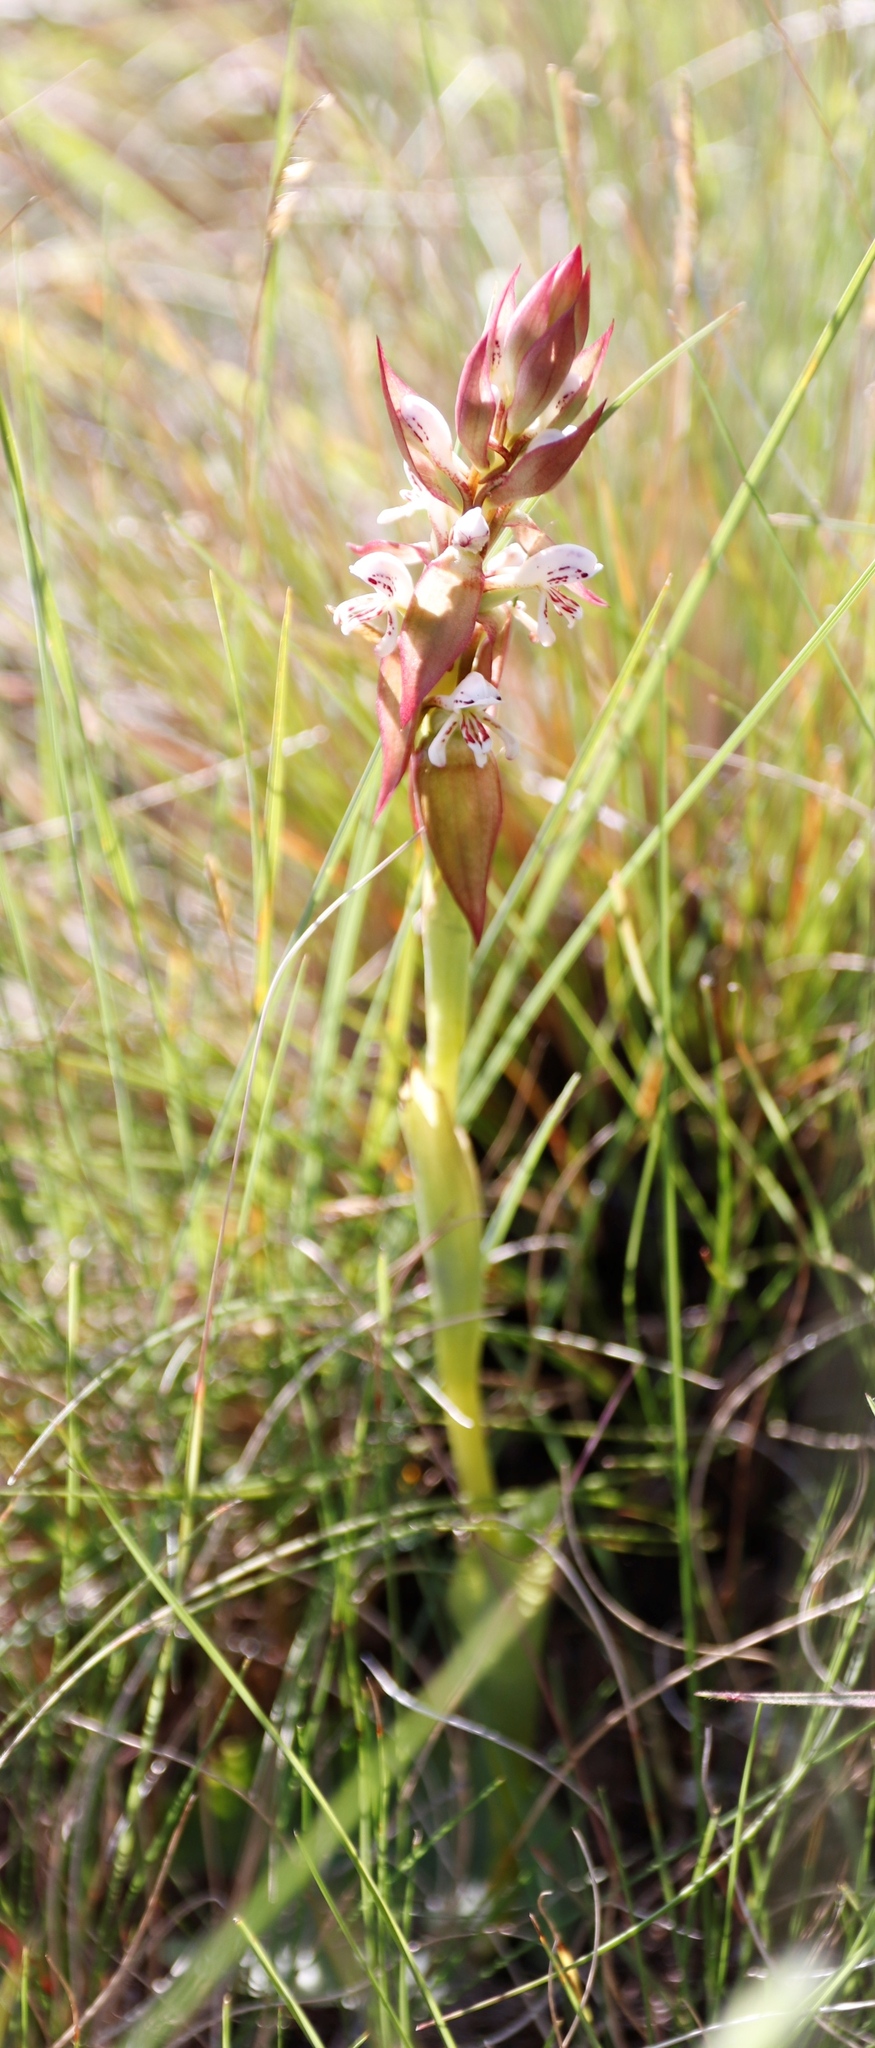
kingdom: Plantae
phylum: Tracheophyta
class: Liliopsida
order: Asparagales
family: Orchidaceae
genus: Satyrium
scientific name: Satyrium cristatum
